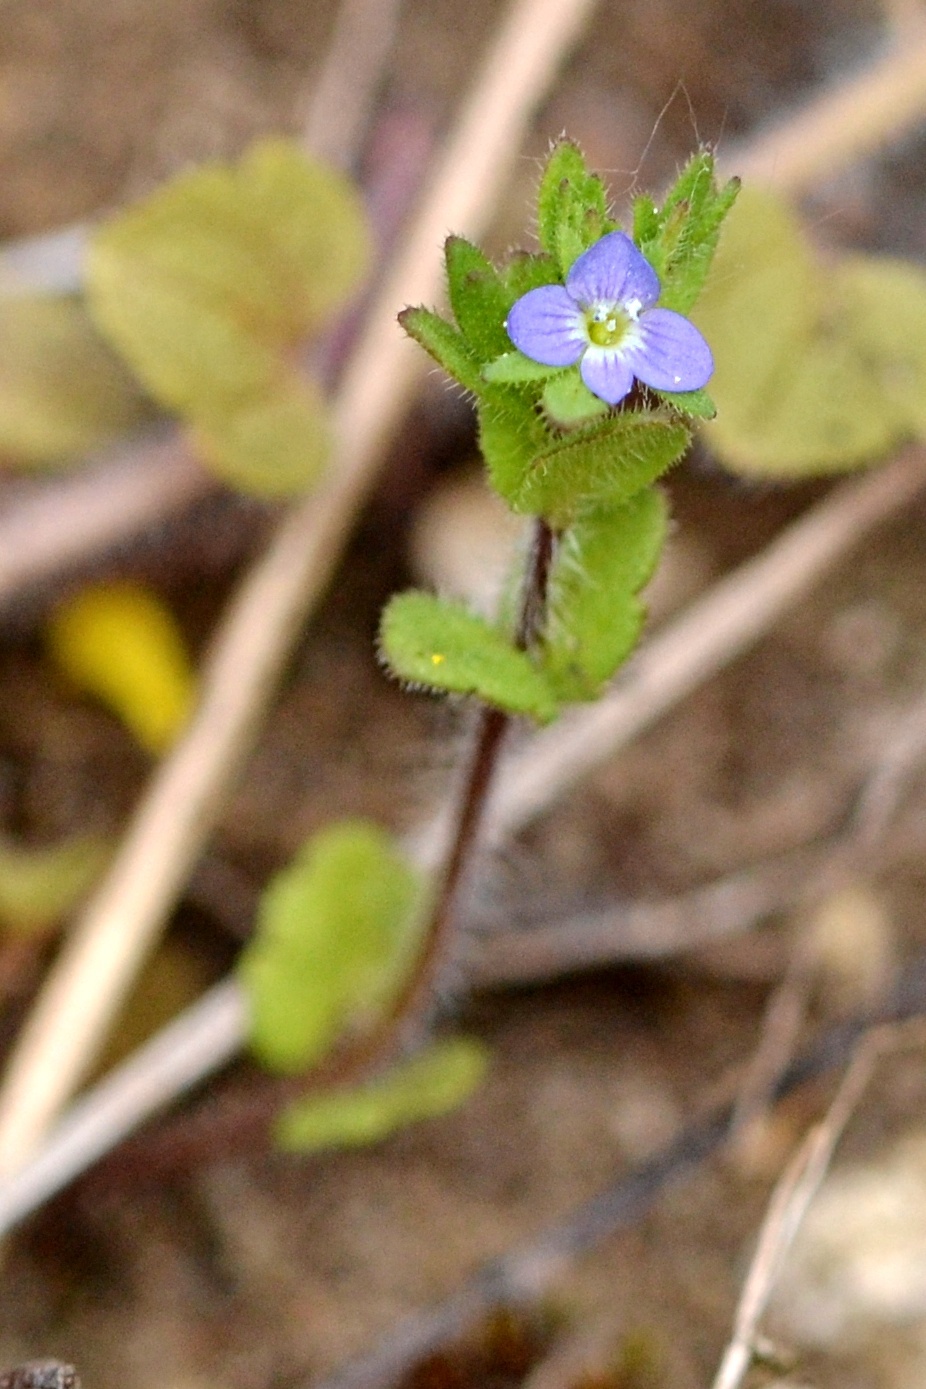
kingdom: Plantae
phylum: Tracheophyta
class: Magnoliopsida
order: Lamiales
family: Plantaginaceae
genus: Veronica
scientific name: Veronica arvensis
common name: Corn speedwell
